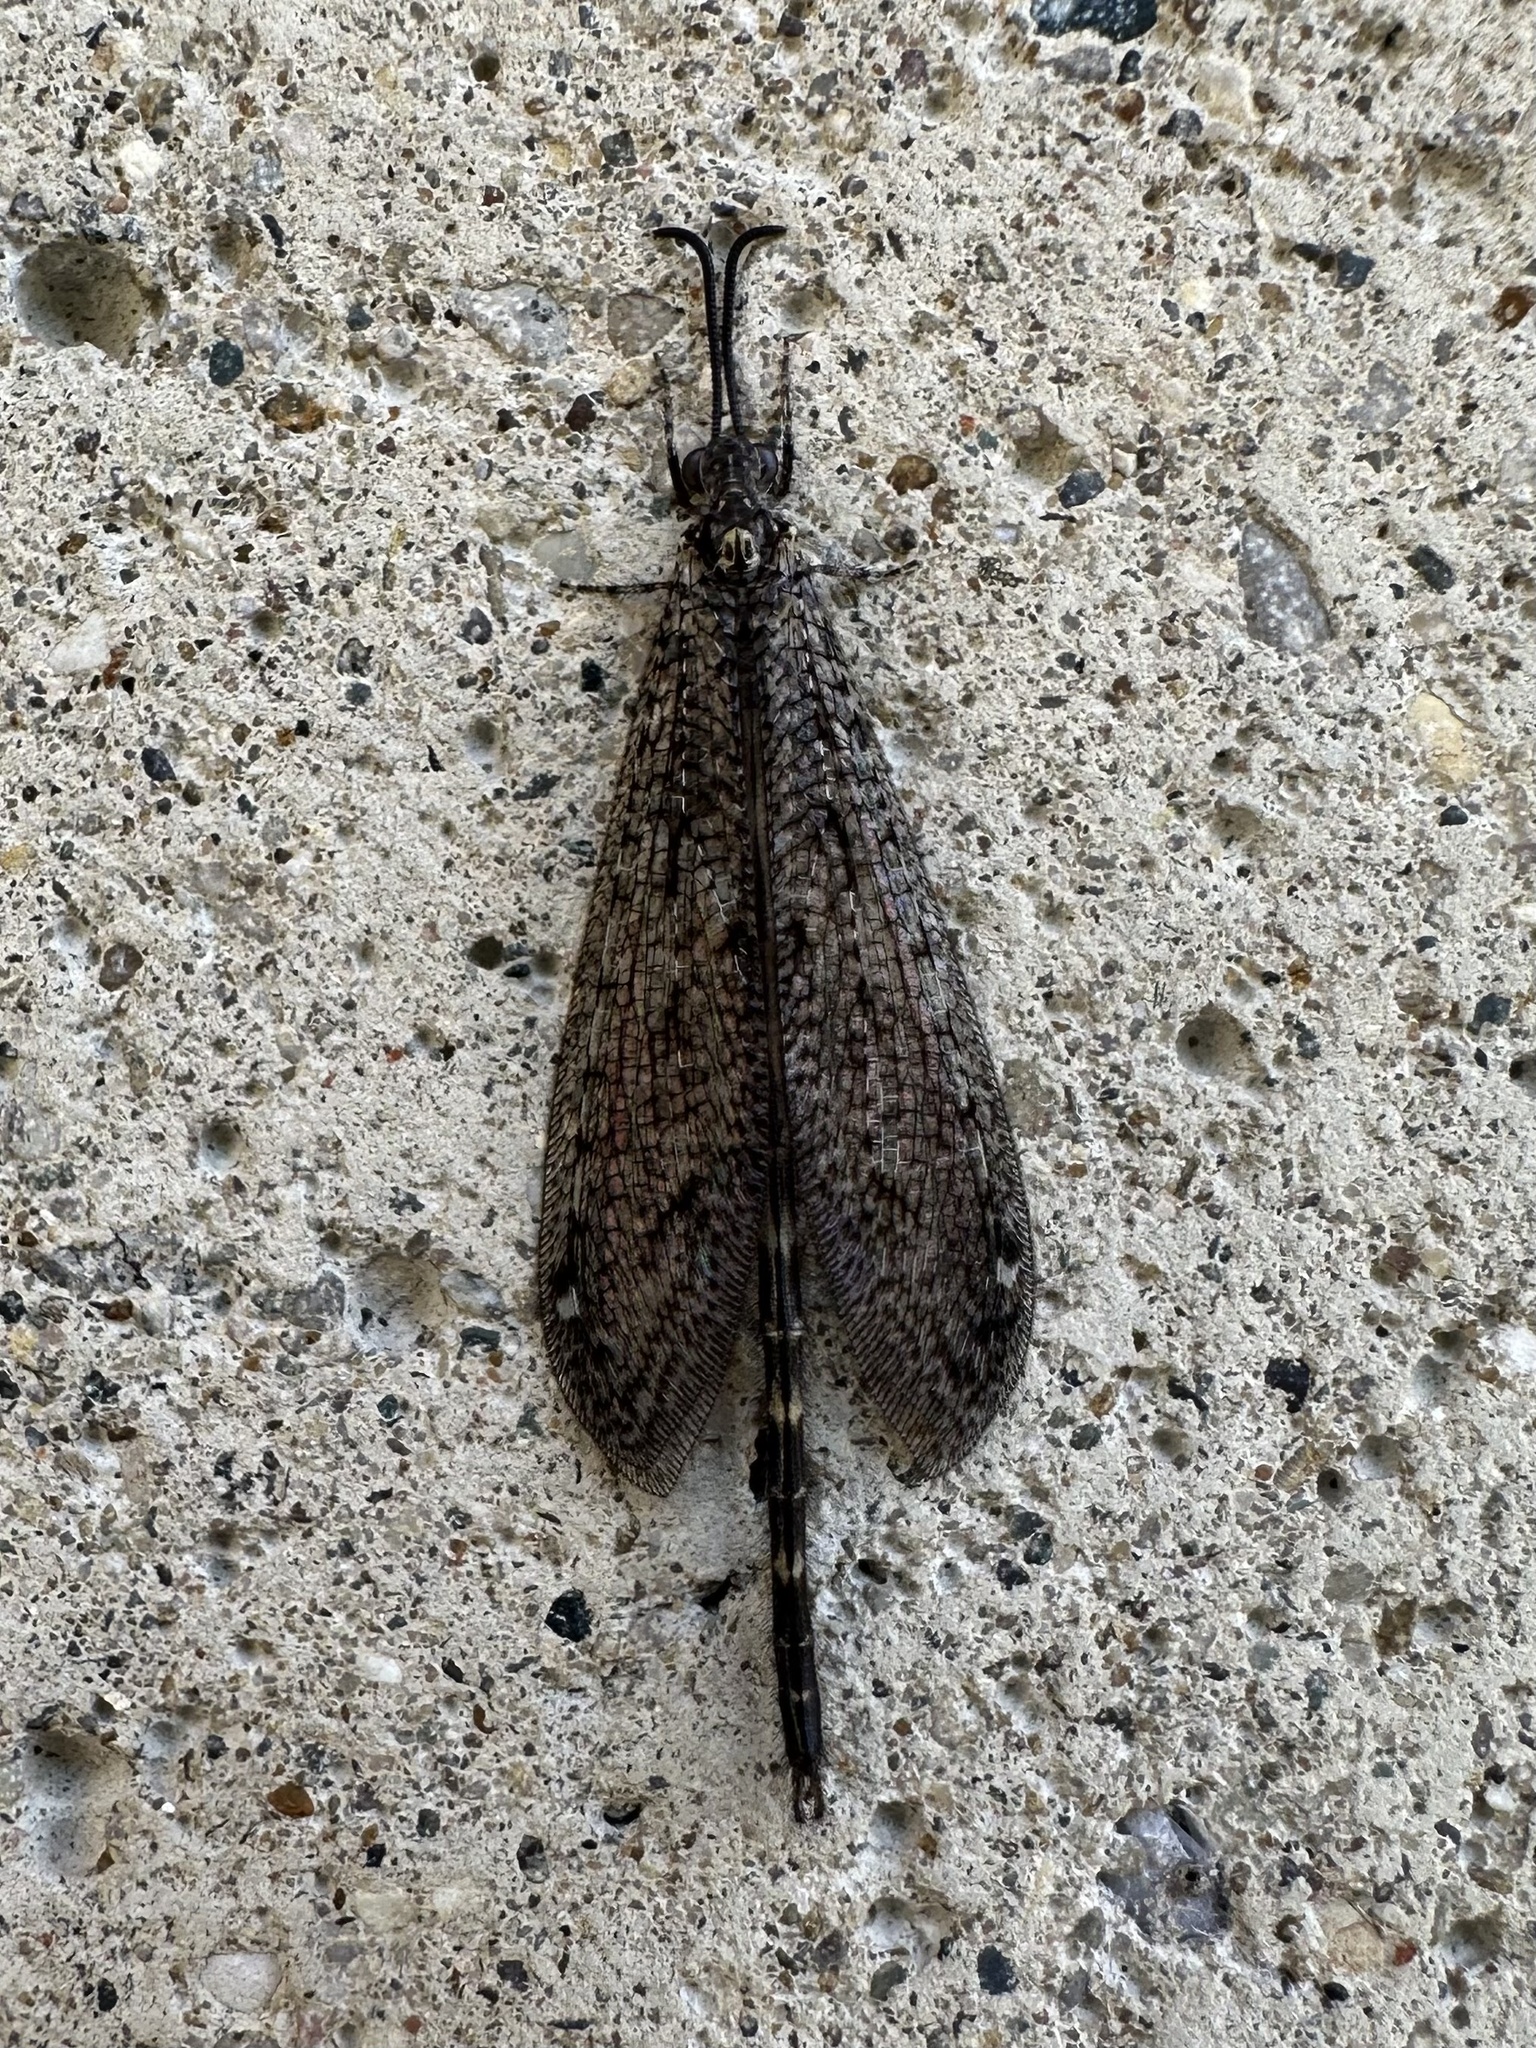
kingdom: Animalia
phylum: Arthropoda
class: Insecta
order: Neuroptera
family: Myrmeleontidae
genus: Brachynemurus
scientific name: Brachynemurus nebulosus
